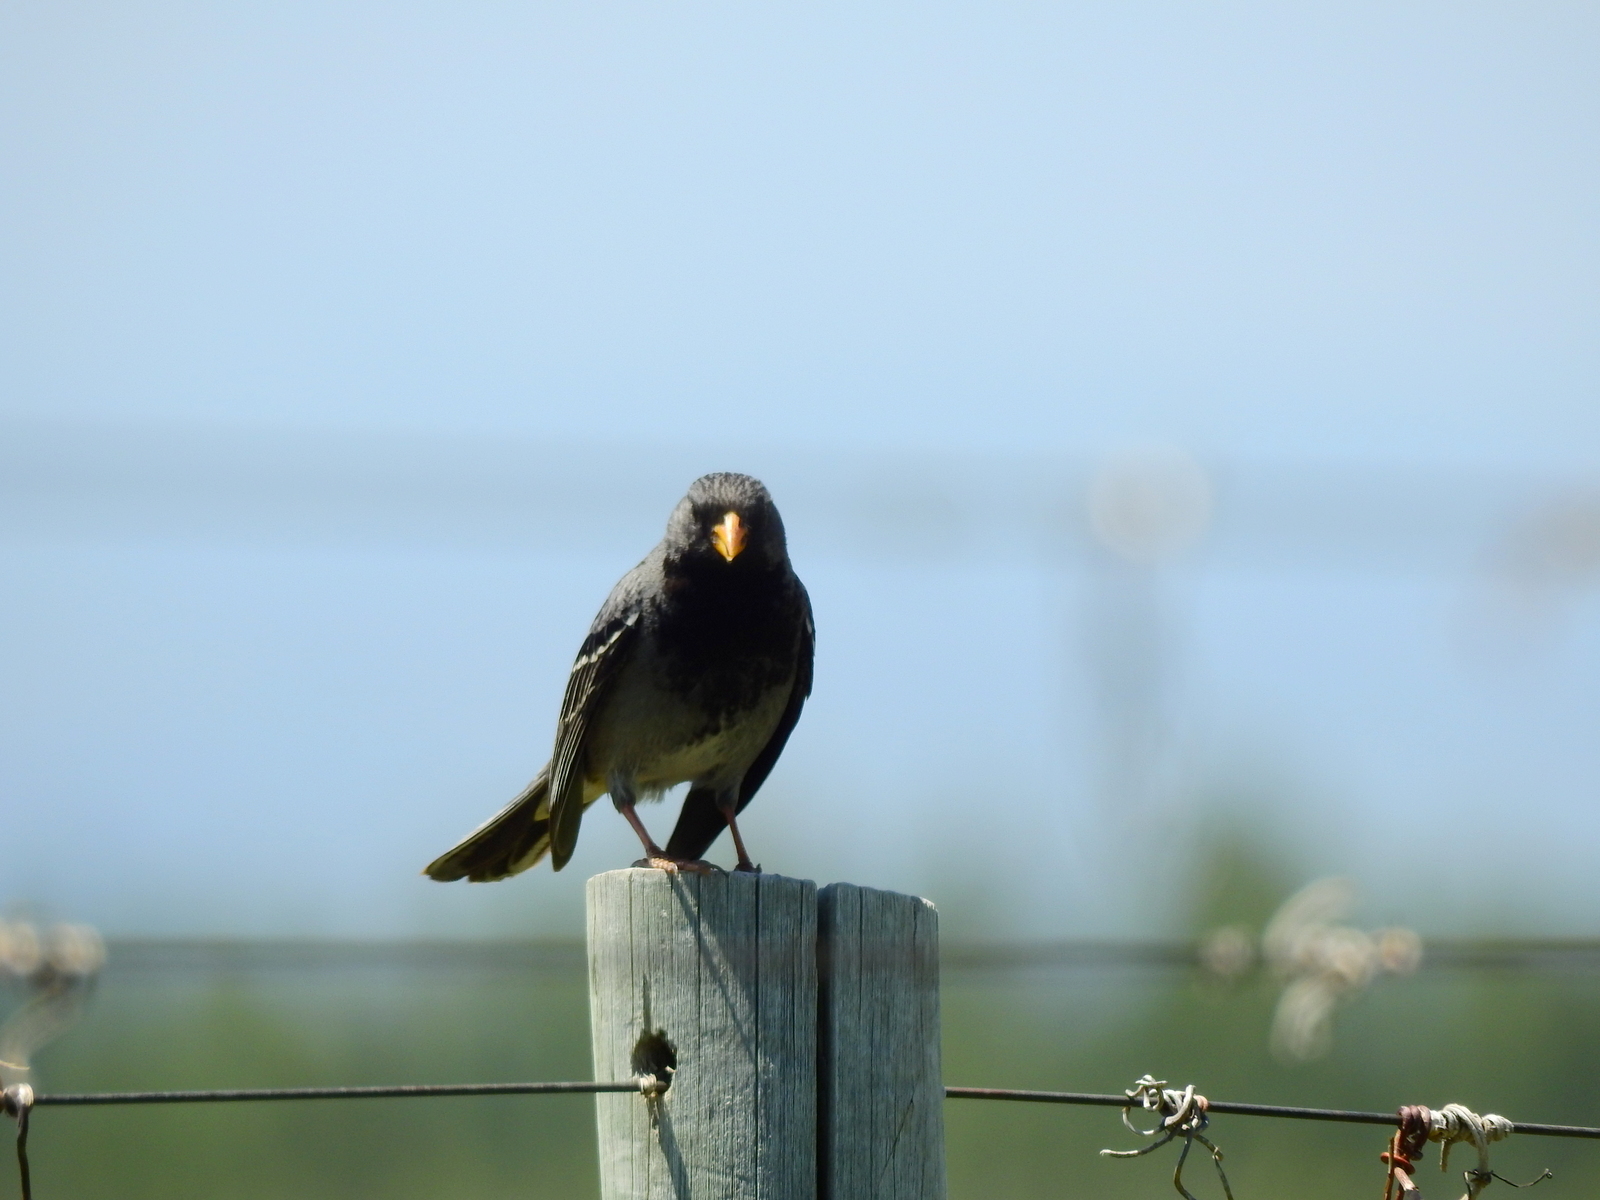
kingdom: Animalia
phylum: Chordata
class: Aves
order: Passeriformes
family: Thraupidae
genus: Rhopospina
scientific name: Rhopospina fruticeti
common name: Mourning sierra finch
